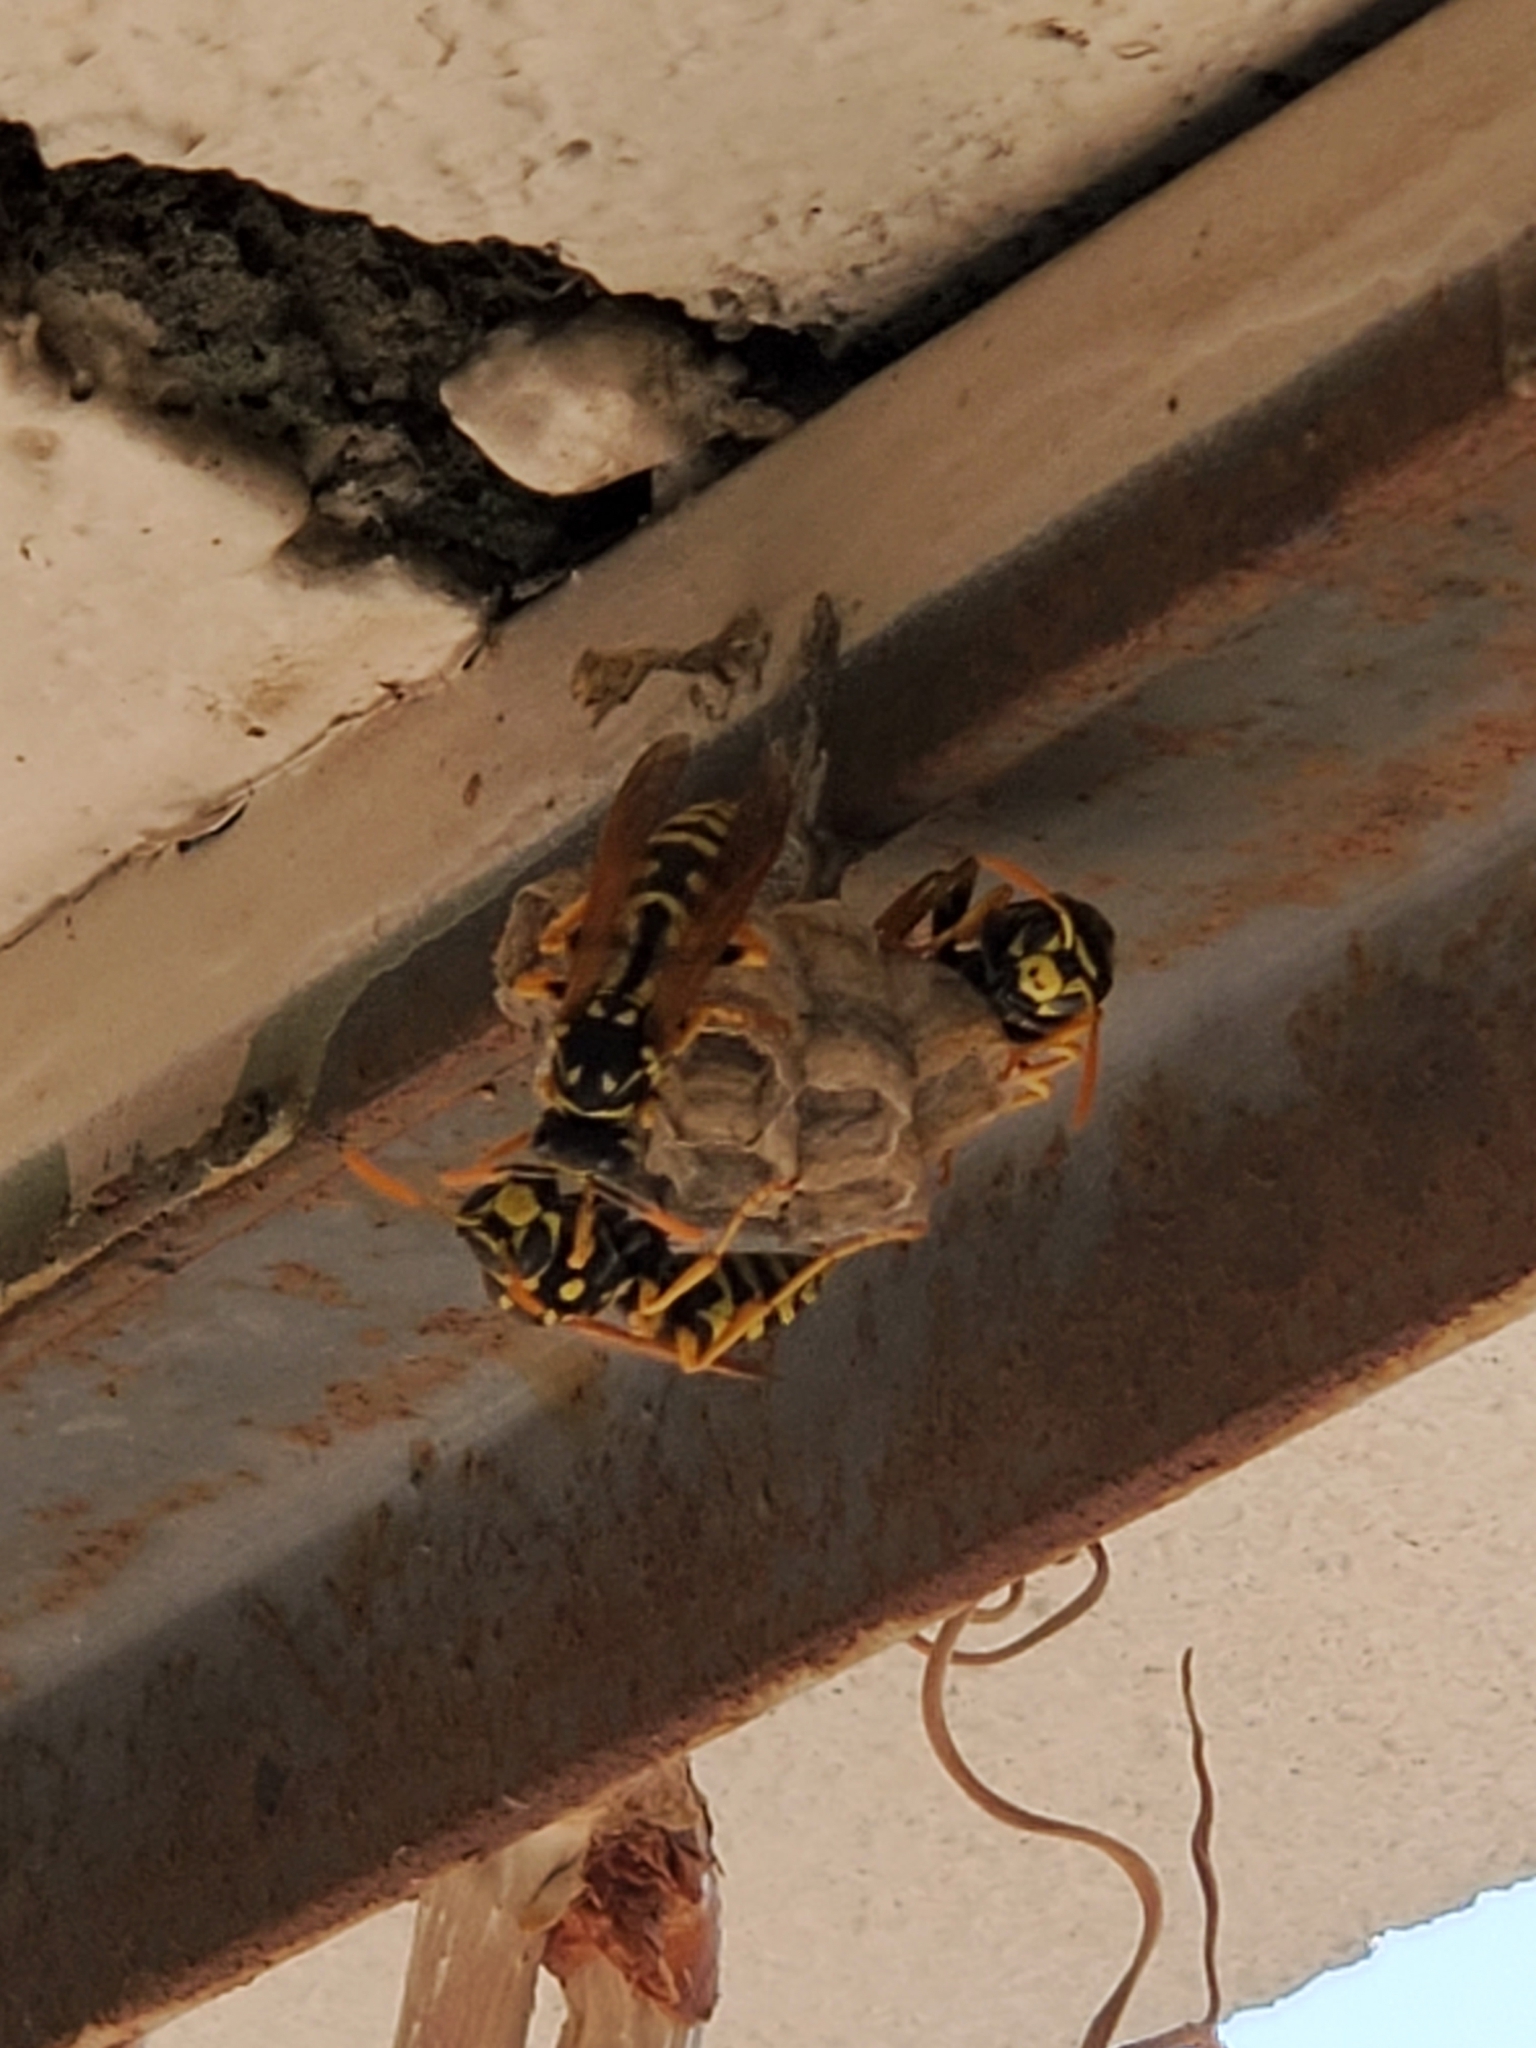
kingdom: Animalia
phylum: Arthropoda
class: Insecta
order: Hymenoptera
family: Eumenidae
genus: Polistes
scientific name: Polistes dominula
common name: Paper wasp
